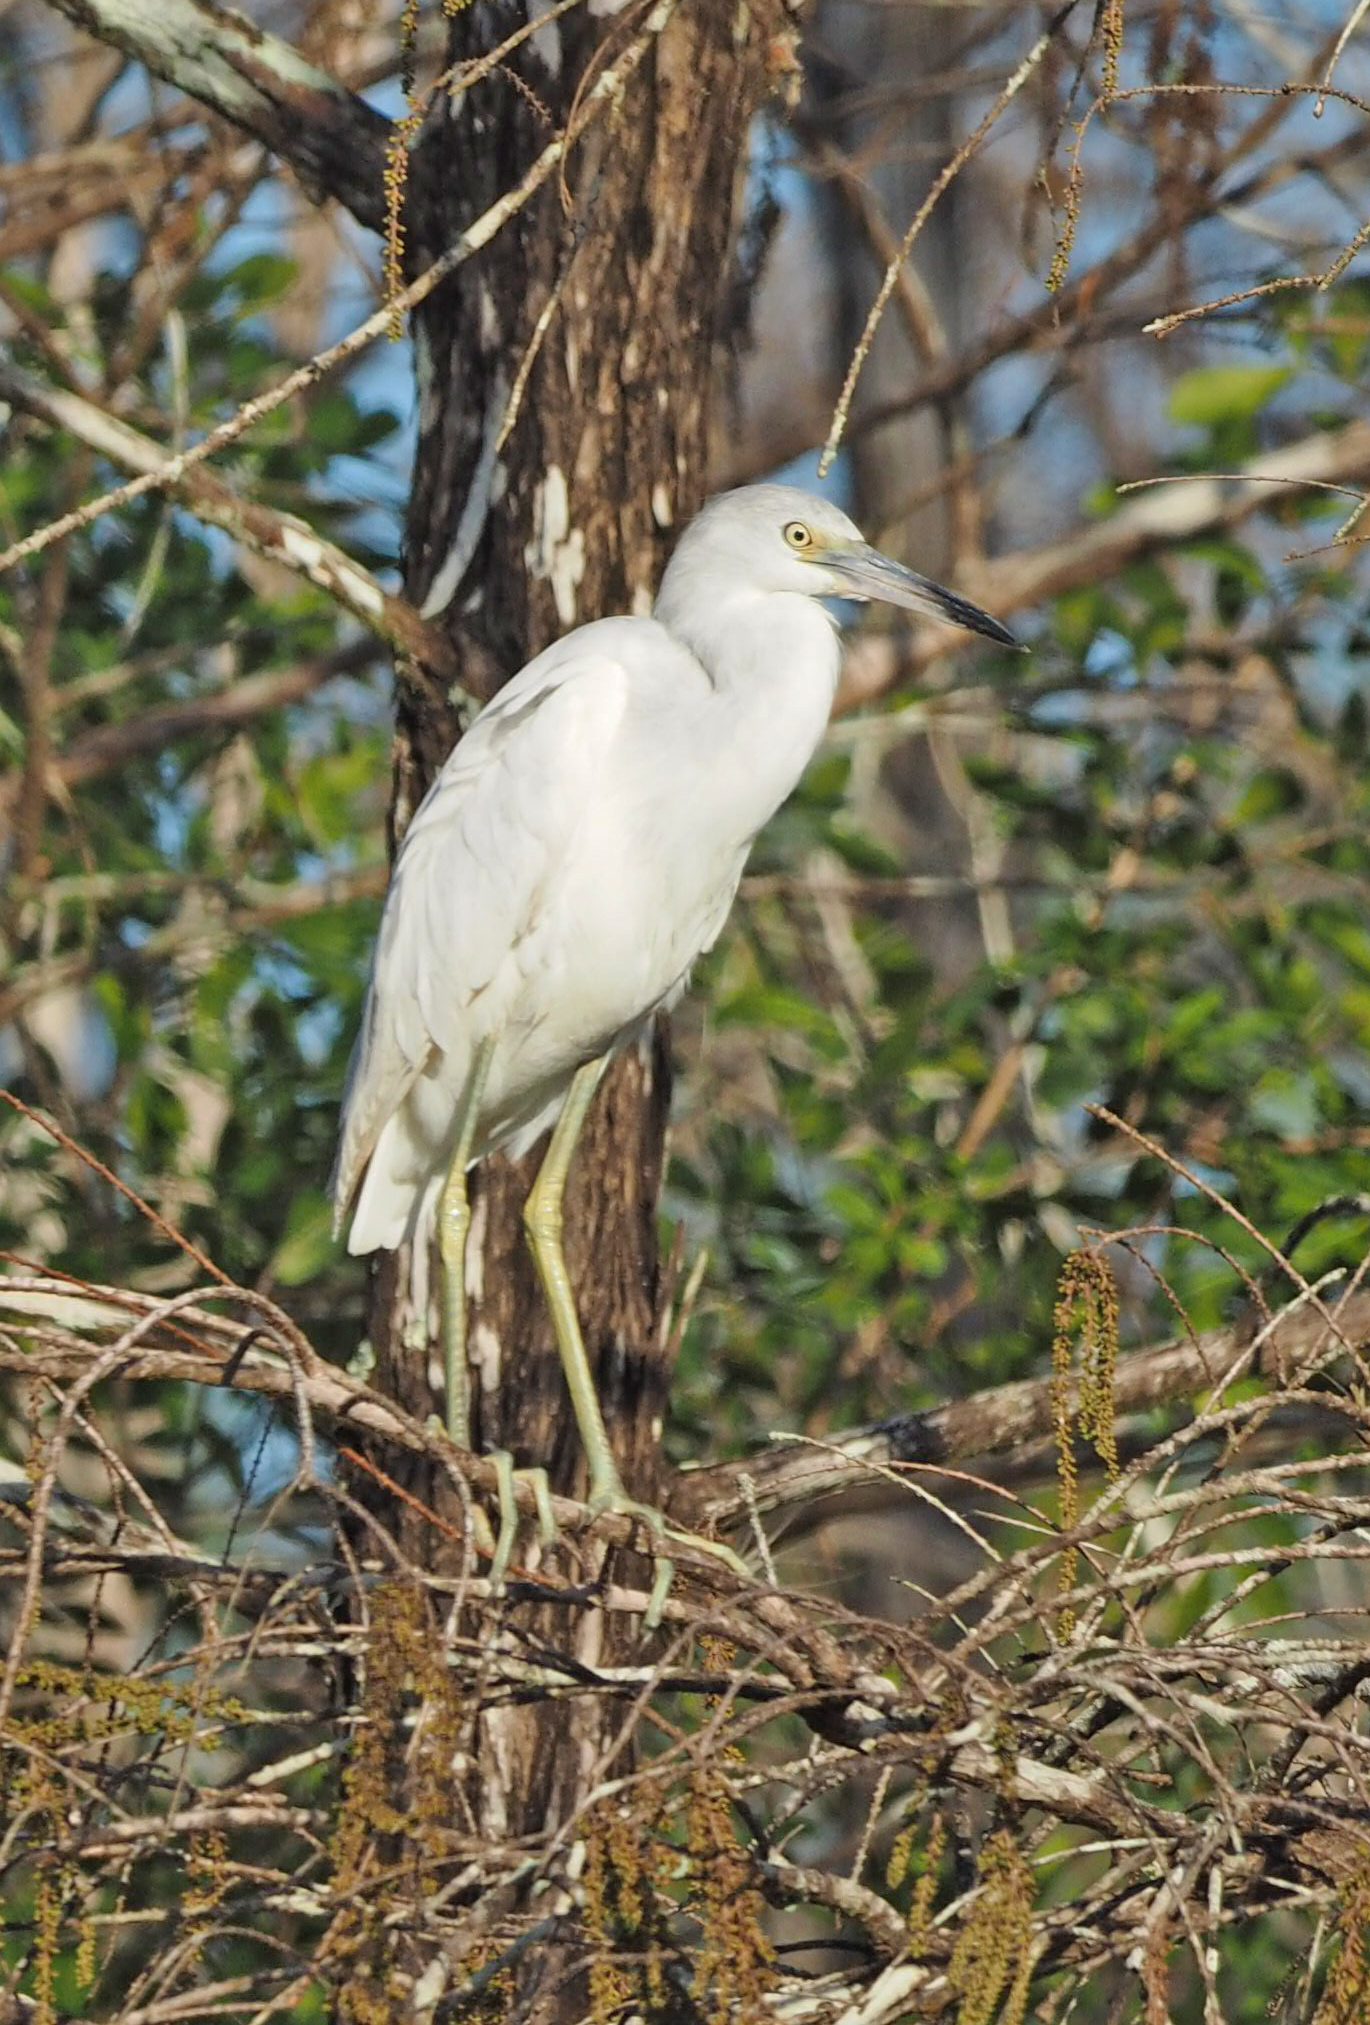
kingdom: Animalia
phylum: Chordata
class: Aves
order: Pelecaniformes
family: Ardeidae
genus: Egretta
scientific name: Egretta caerulea
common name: Little blue heron
